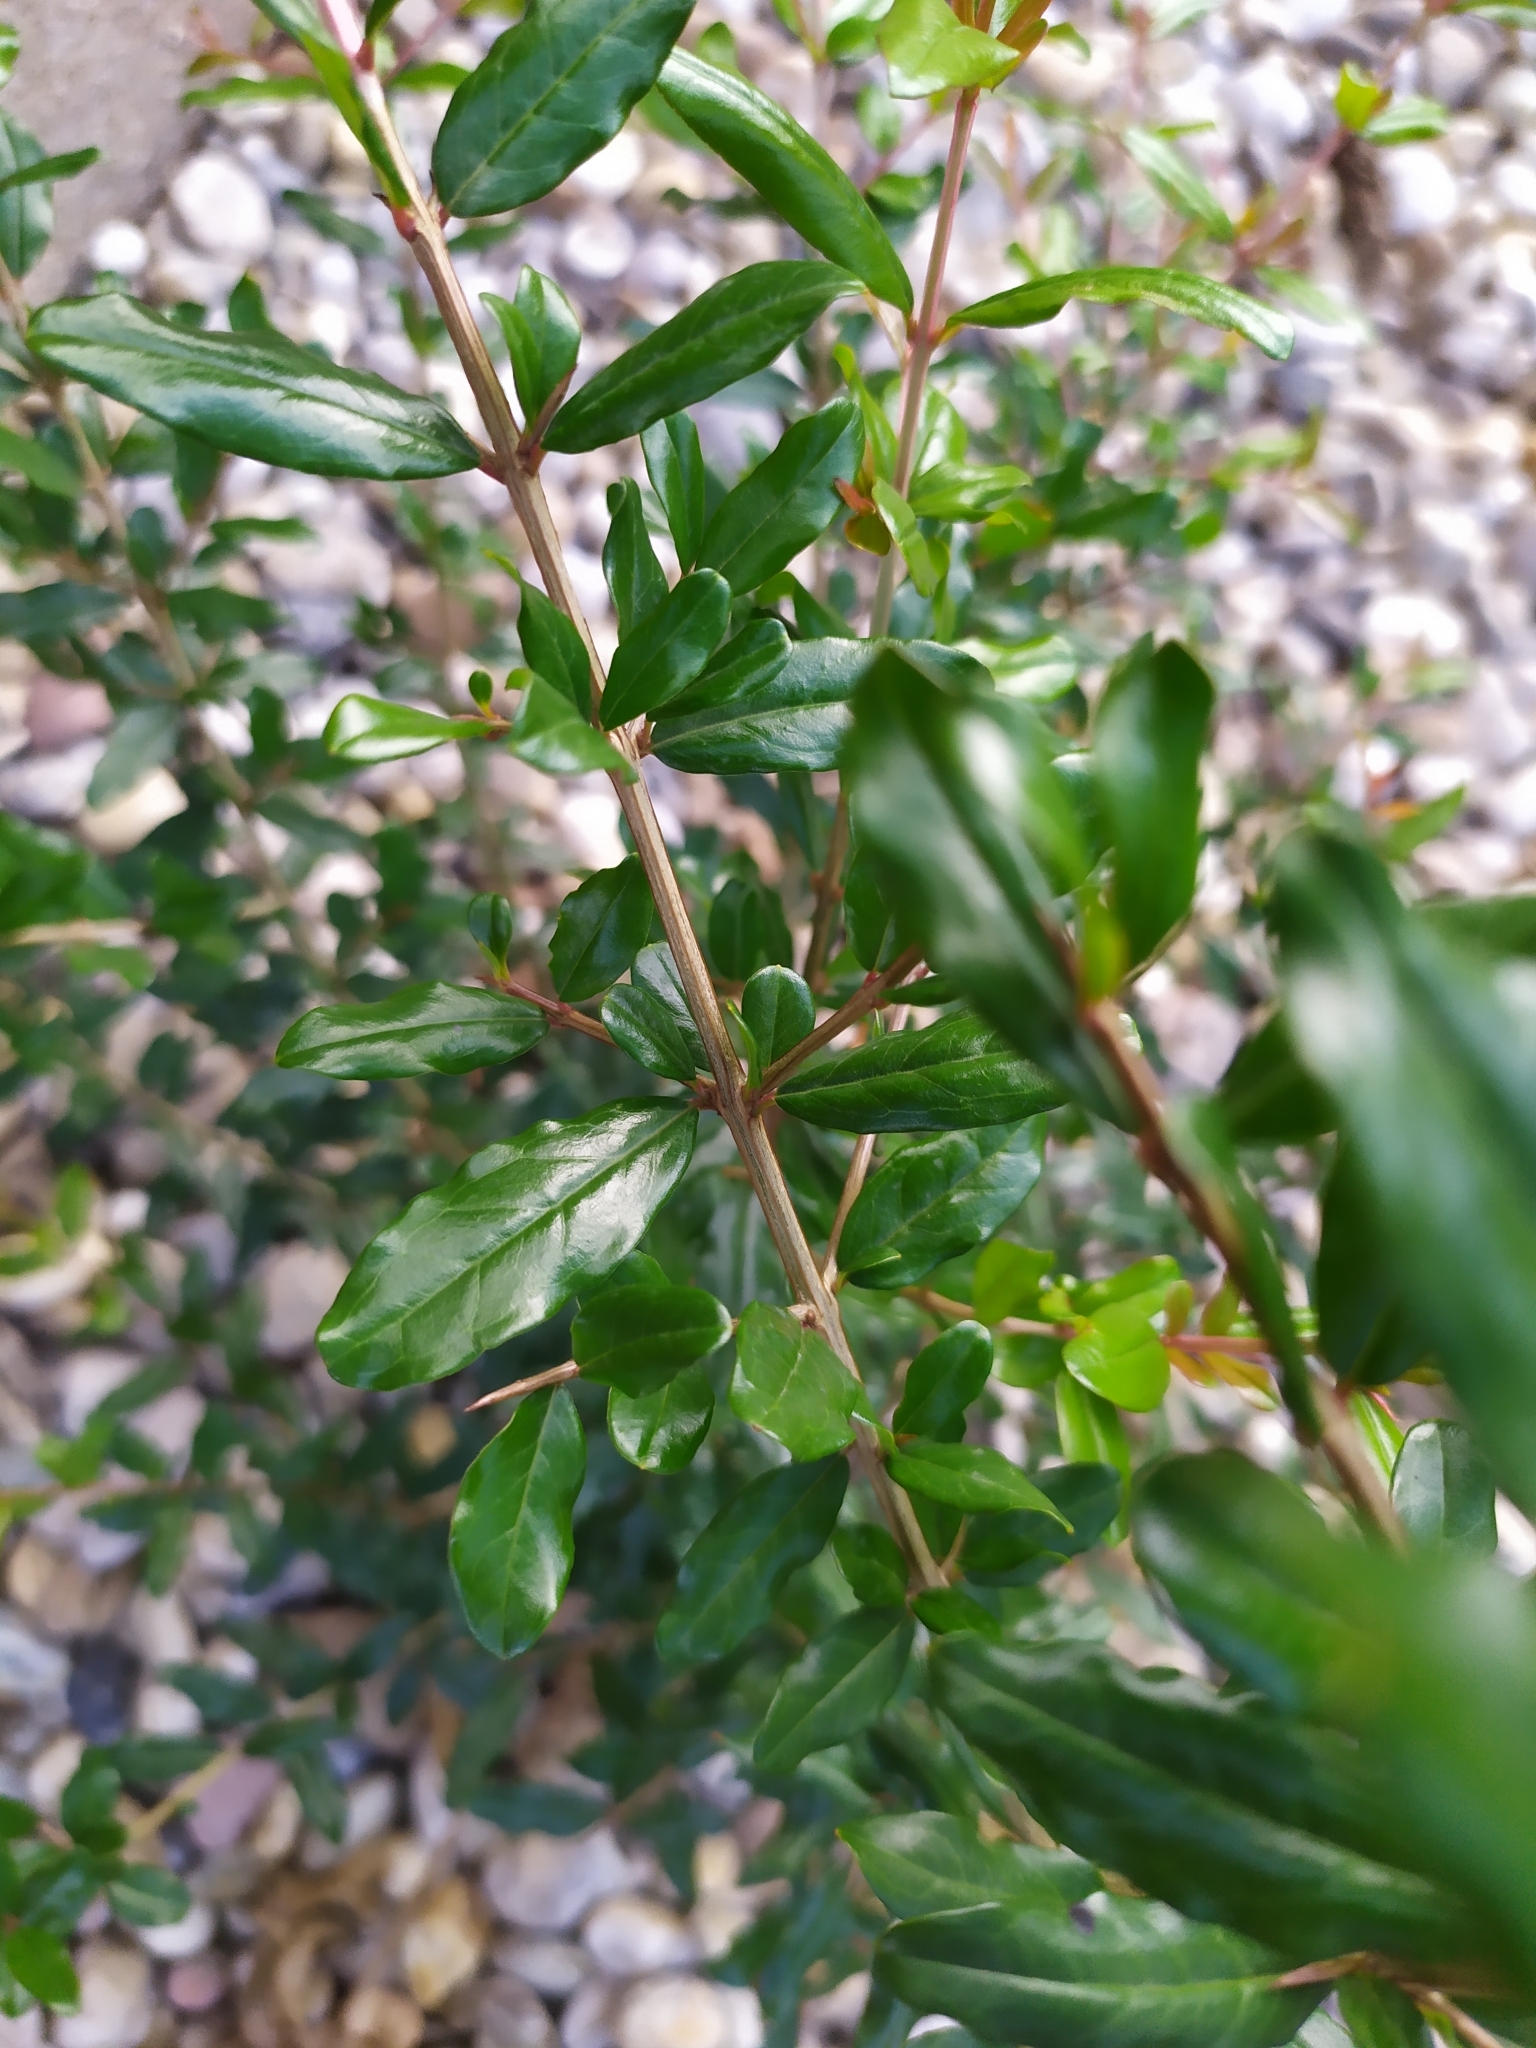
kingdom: Plantae
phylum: Tracheophyta
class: Magnoliopsida
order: Myrtales
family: Lythraceae
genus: Punica
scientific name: Punica granatum
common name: Pomegranate
